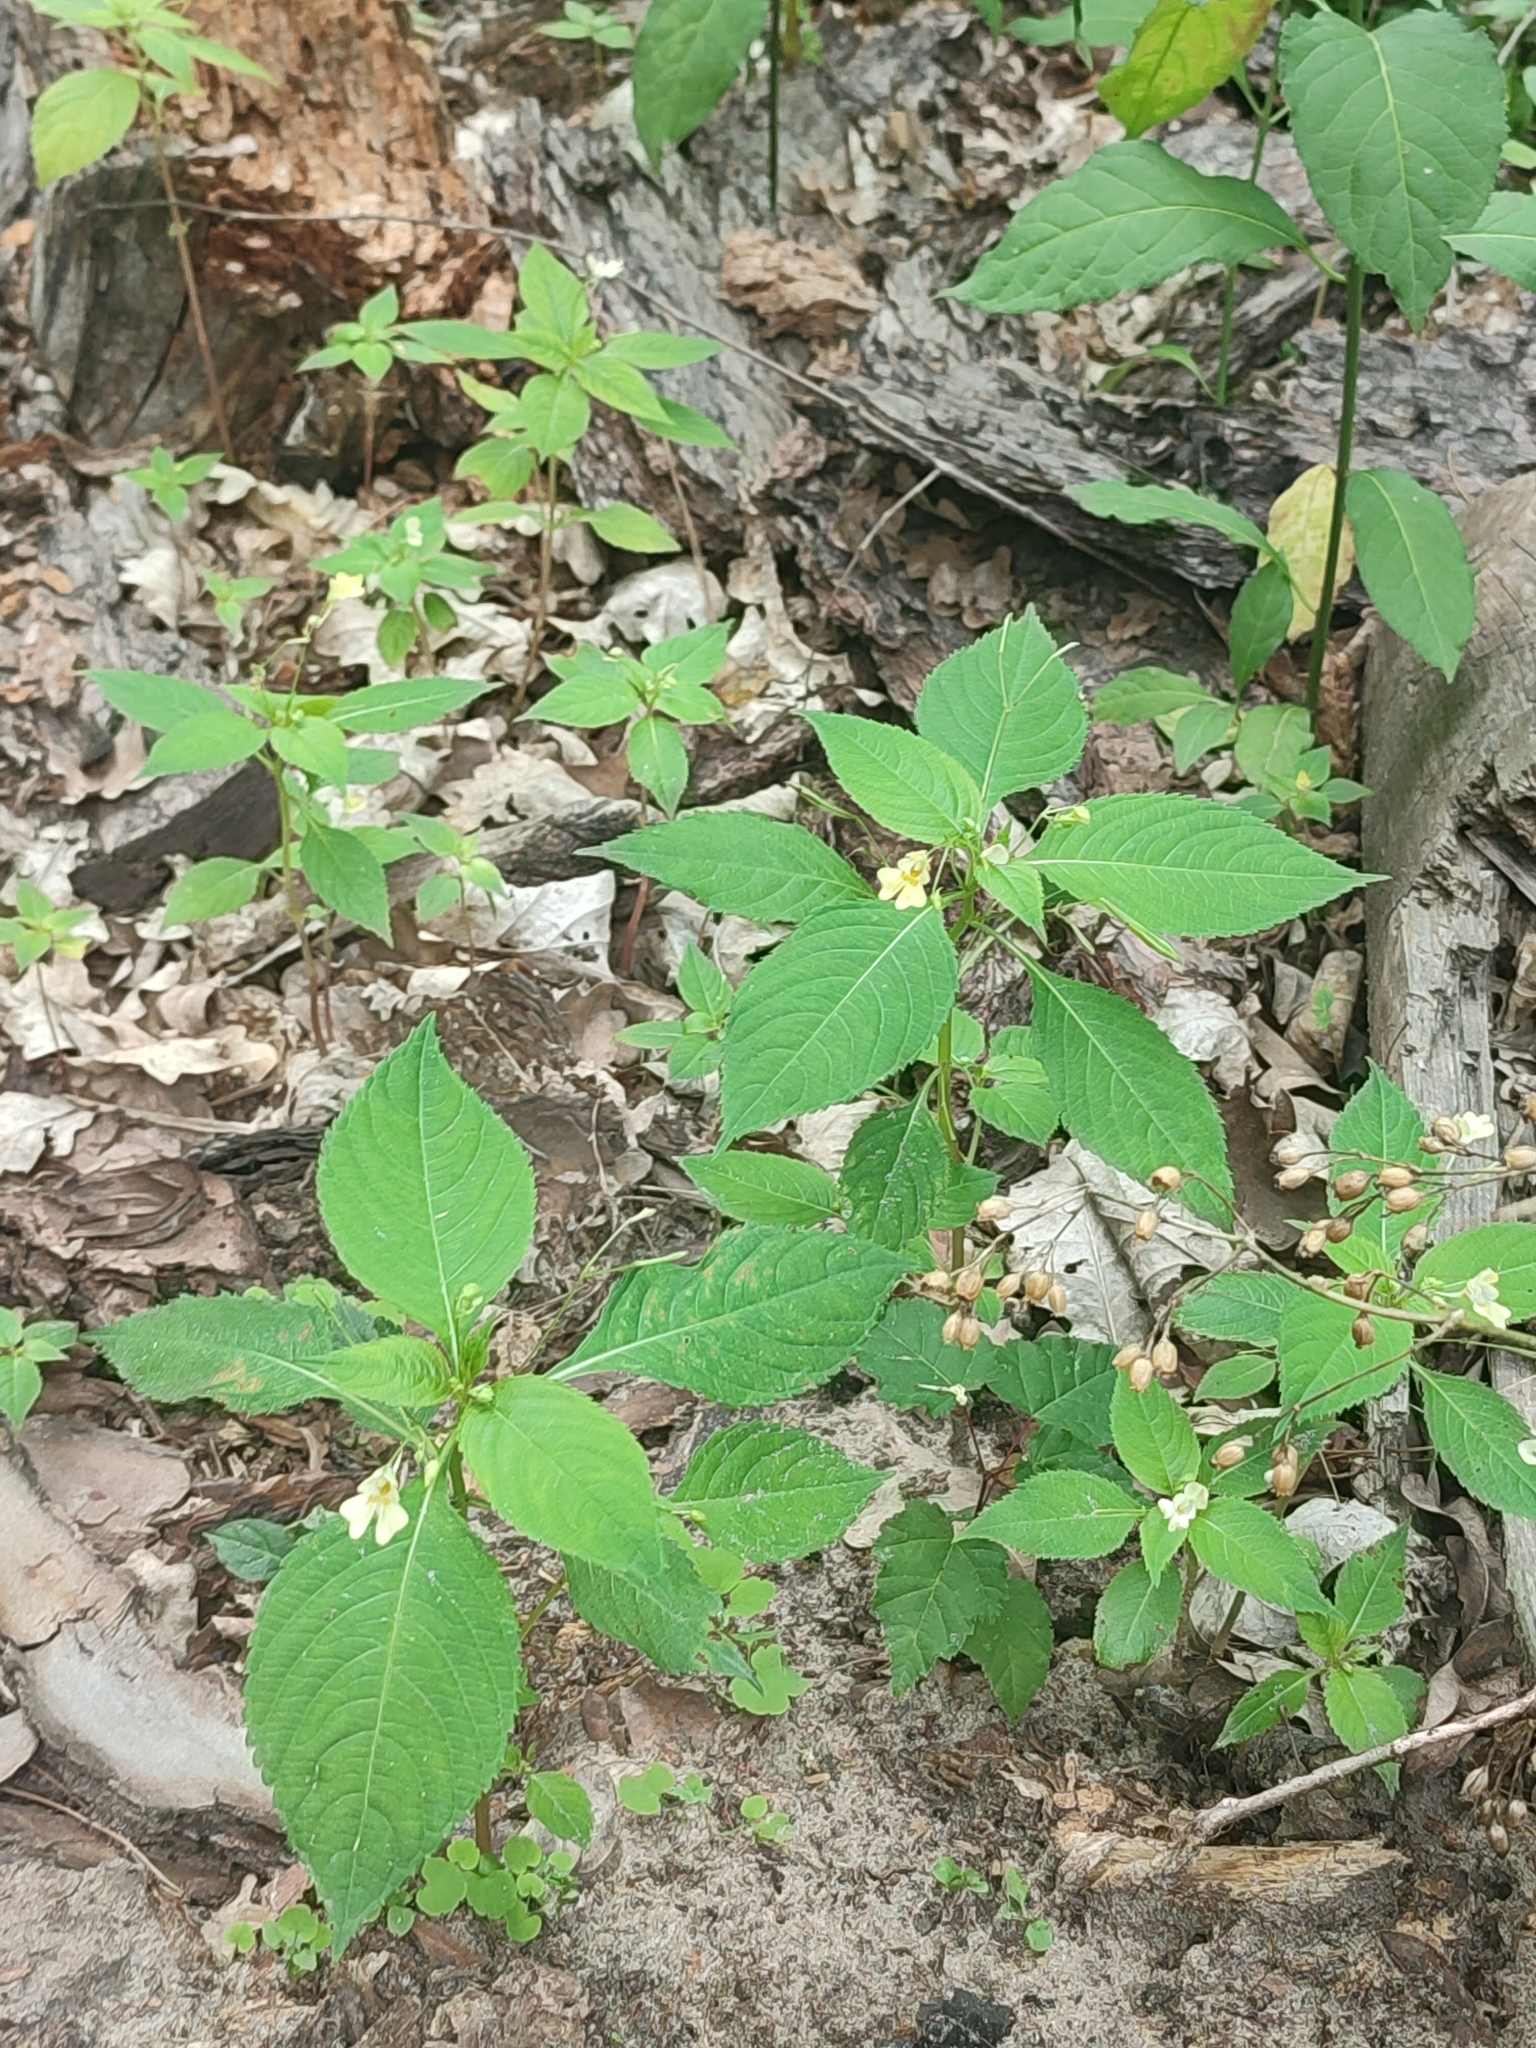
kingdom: Plantae
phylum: Tracheophyta
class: Magnoliopsida
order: Ericales
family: Balsaminaceae
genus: Impatiens
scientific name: Impatiens parviflora
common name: Small balsam
